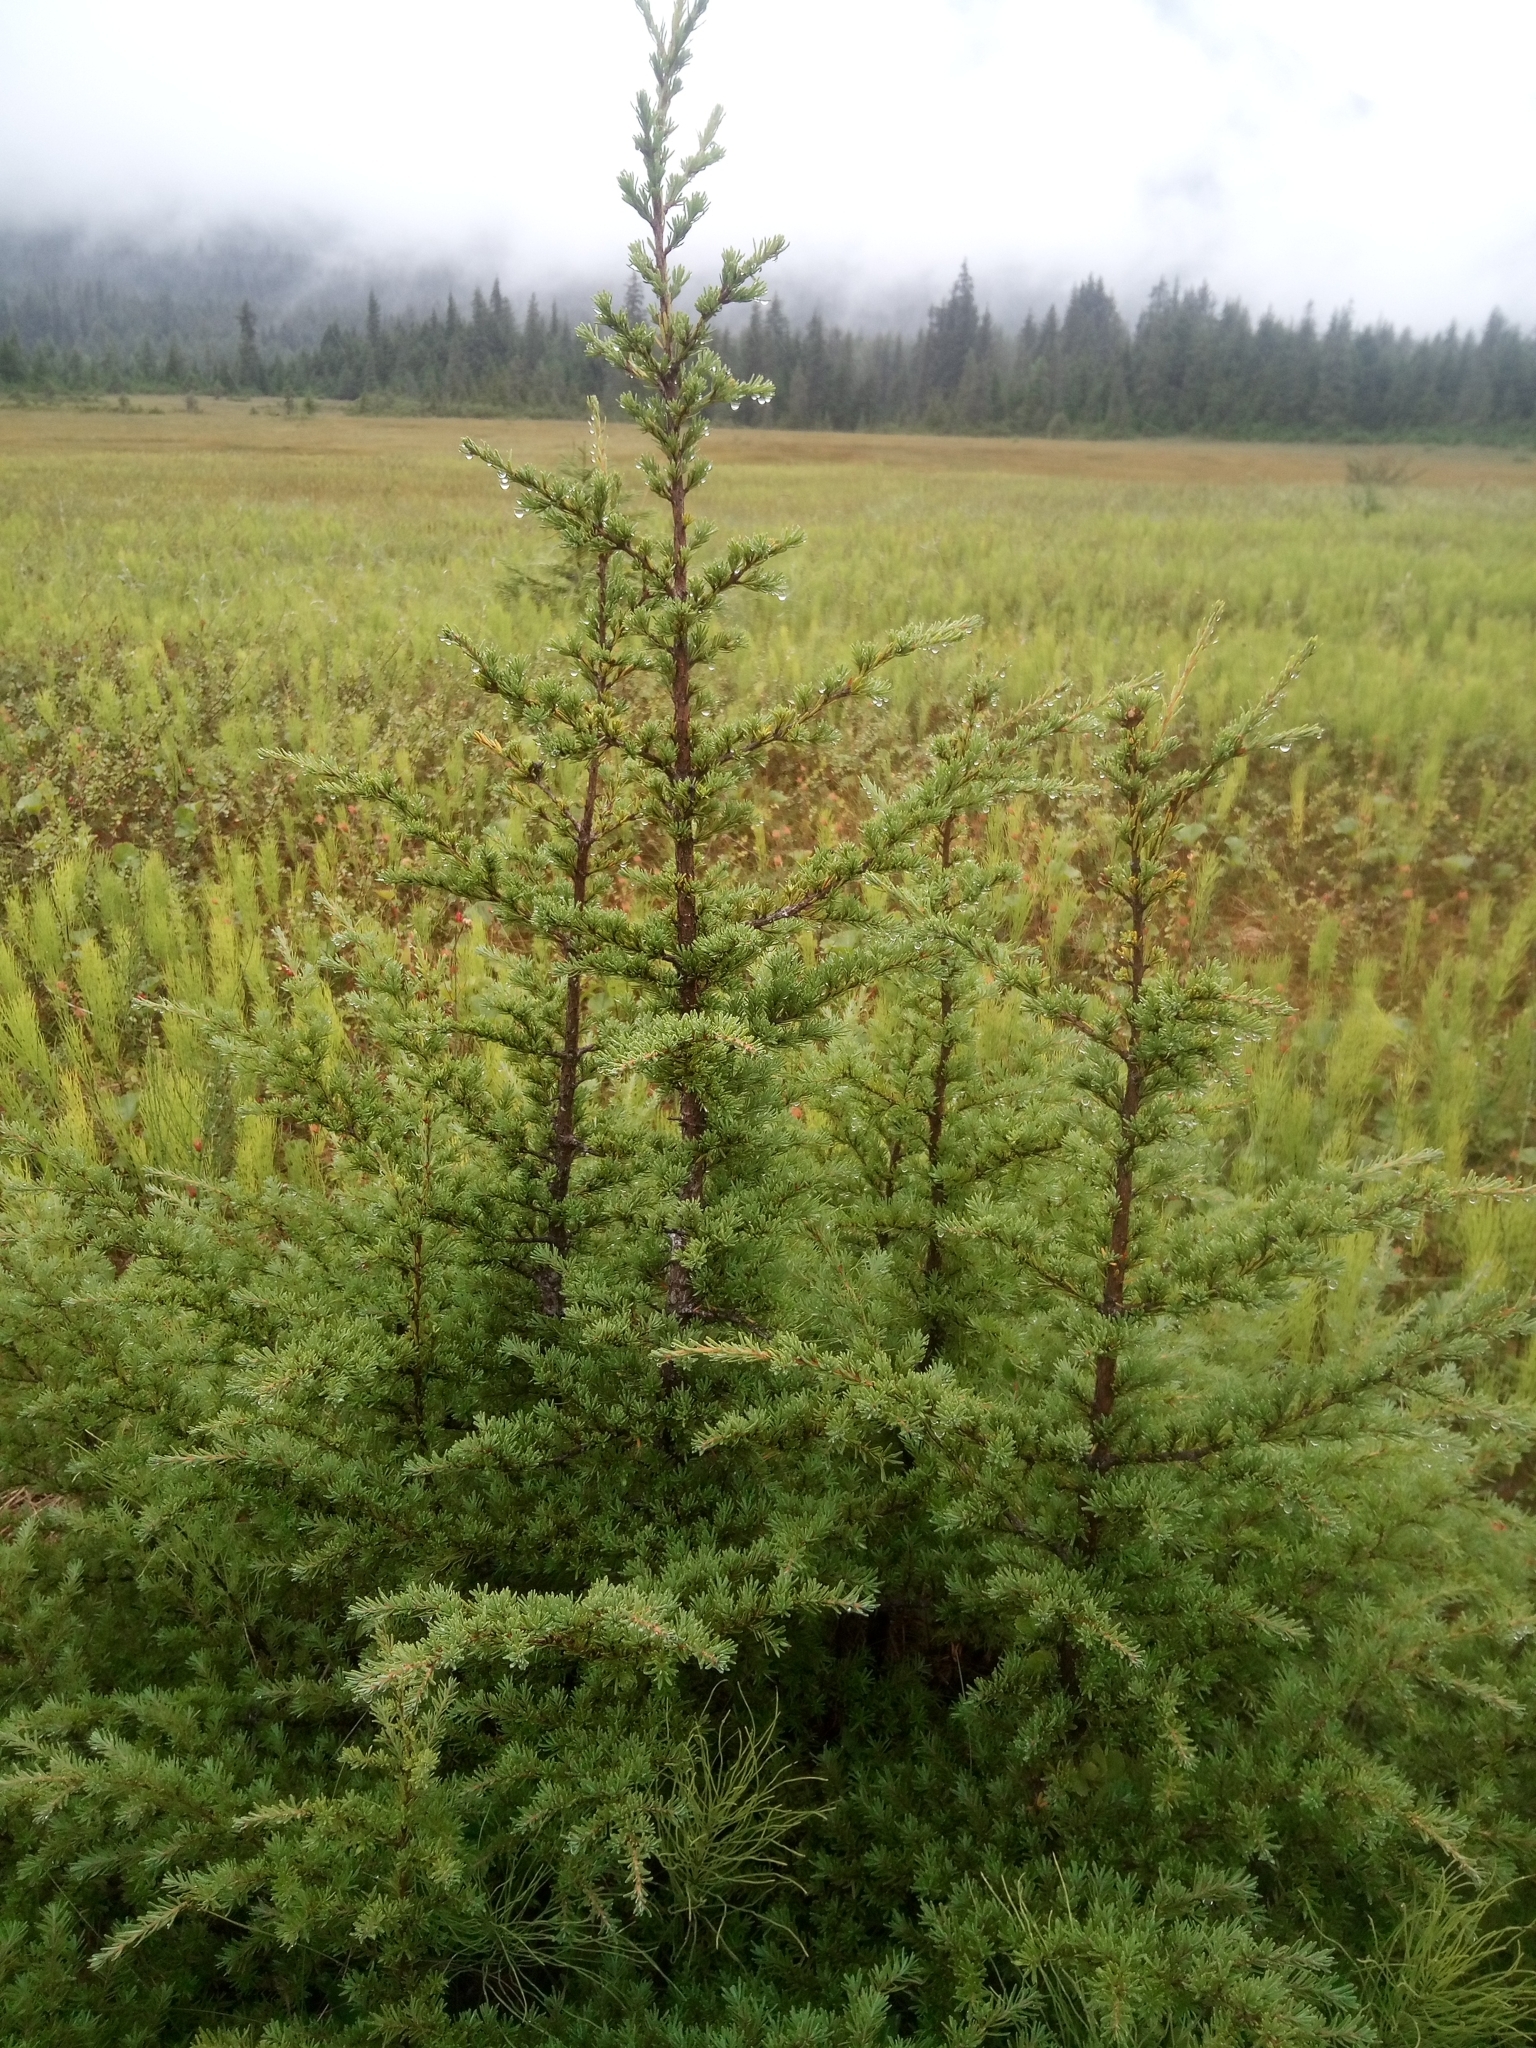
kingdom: Plantae
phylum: Tracheophyta
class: Pinopsida
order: Pinales
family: Pinaceae
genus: Tsuga
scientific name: Tsuga mertensiana
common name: Mountain hemlock
